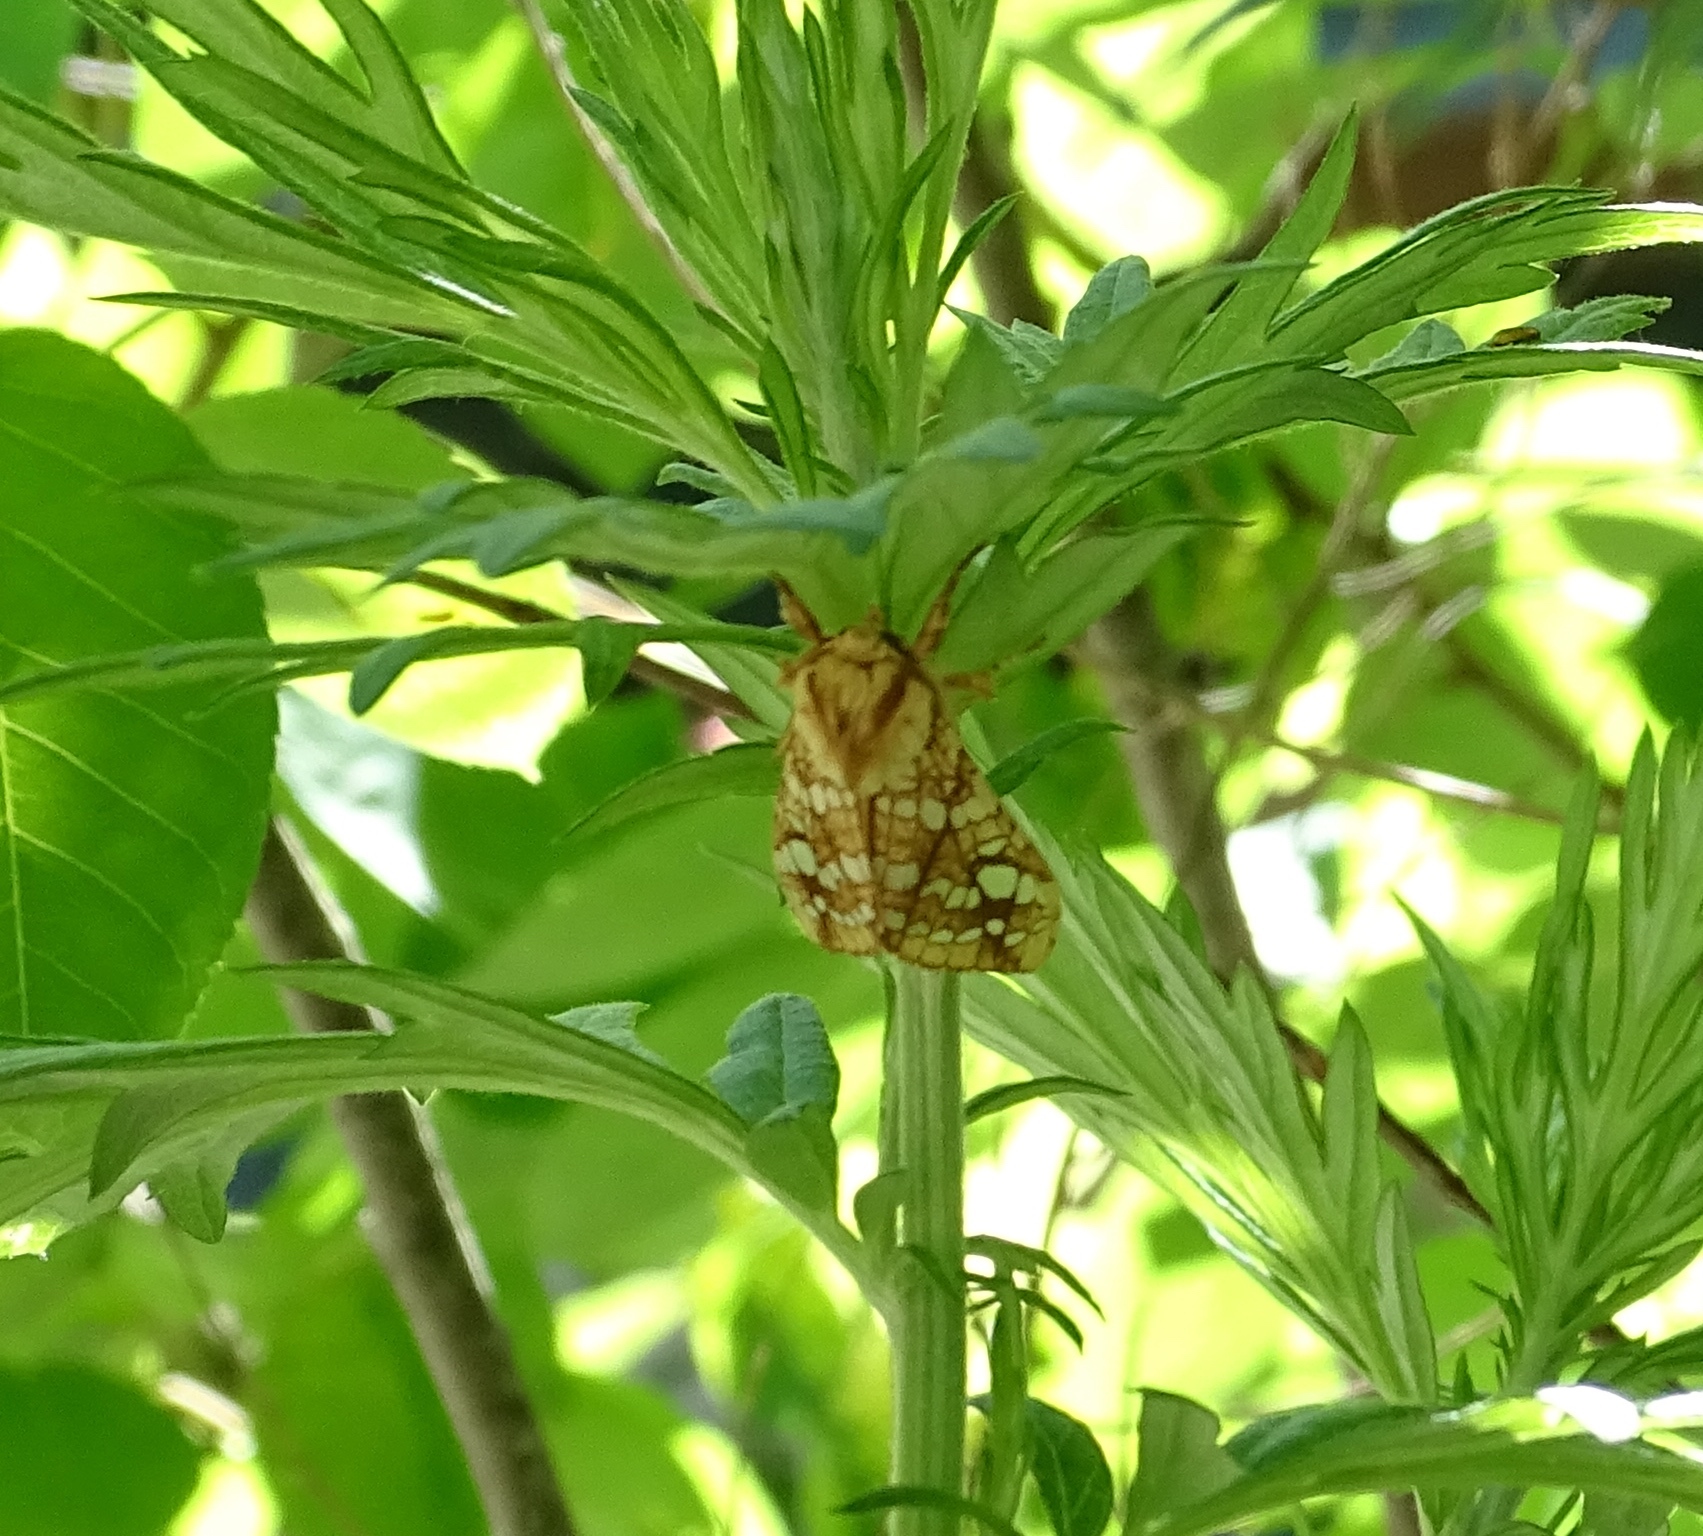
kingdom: Animalia
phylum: Arthropoda
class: Insecta
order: Lepidoptera
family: Erebidae
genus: Lophocampa
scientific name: Lophocampa caryae
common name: Hickory tussock moth
